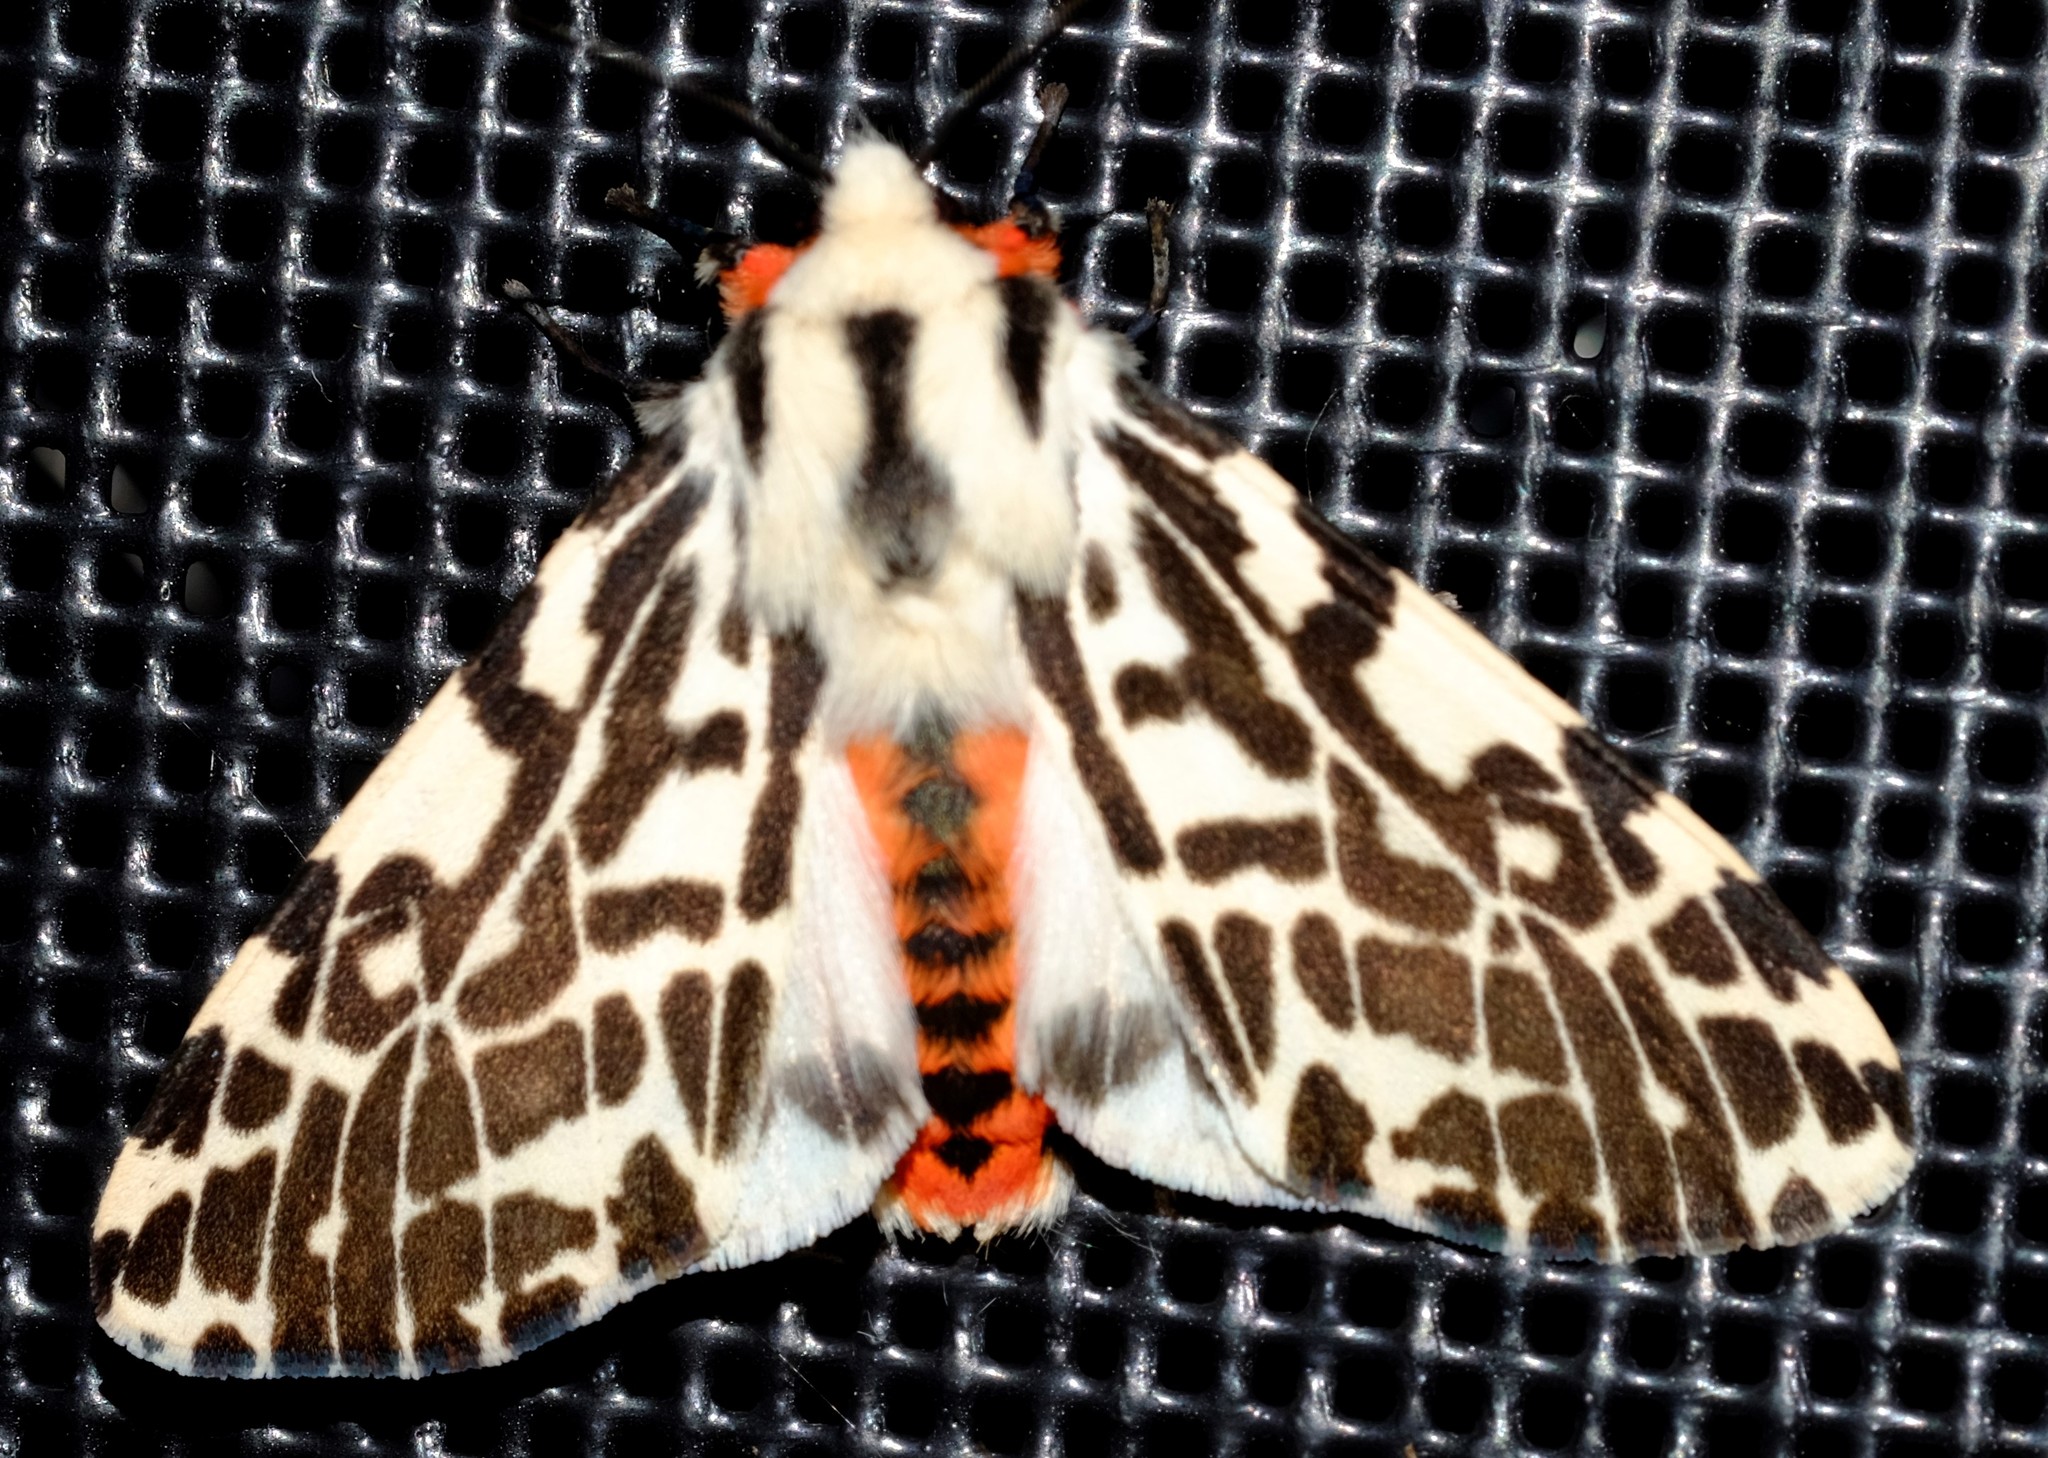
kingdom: Animalia
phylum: Arthropoda
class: Insecta
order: Lepidoptera
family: Erebidae
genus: Ardices
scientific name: Ardices glatignyi
